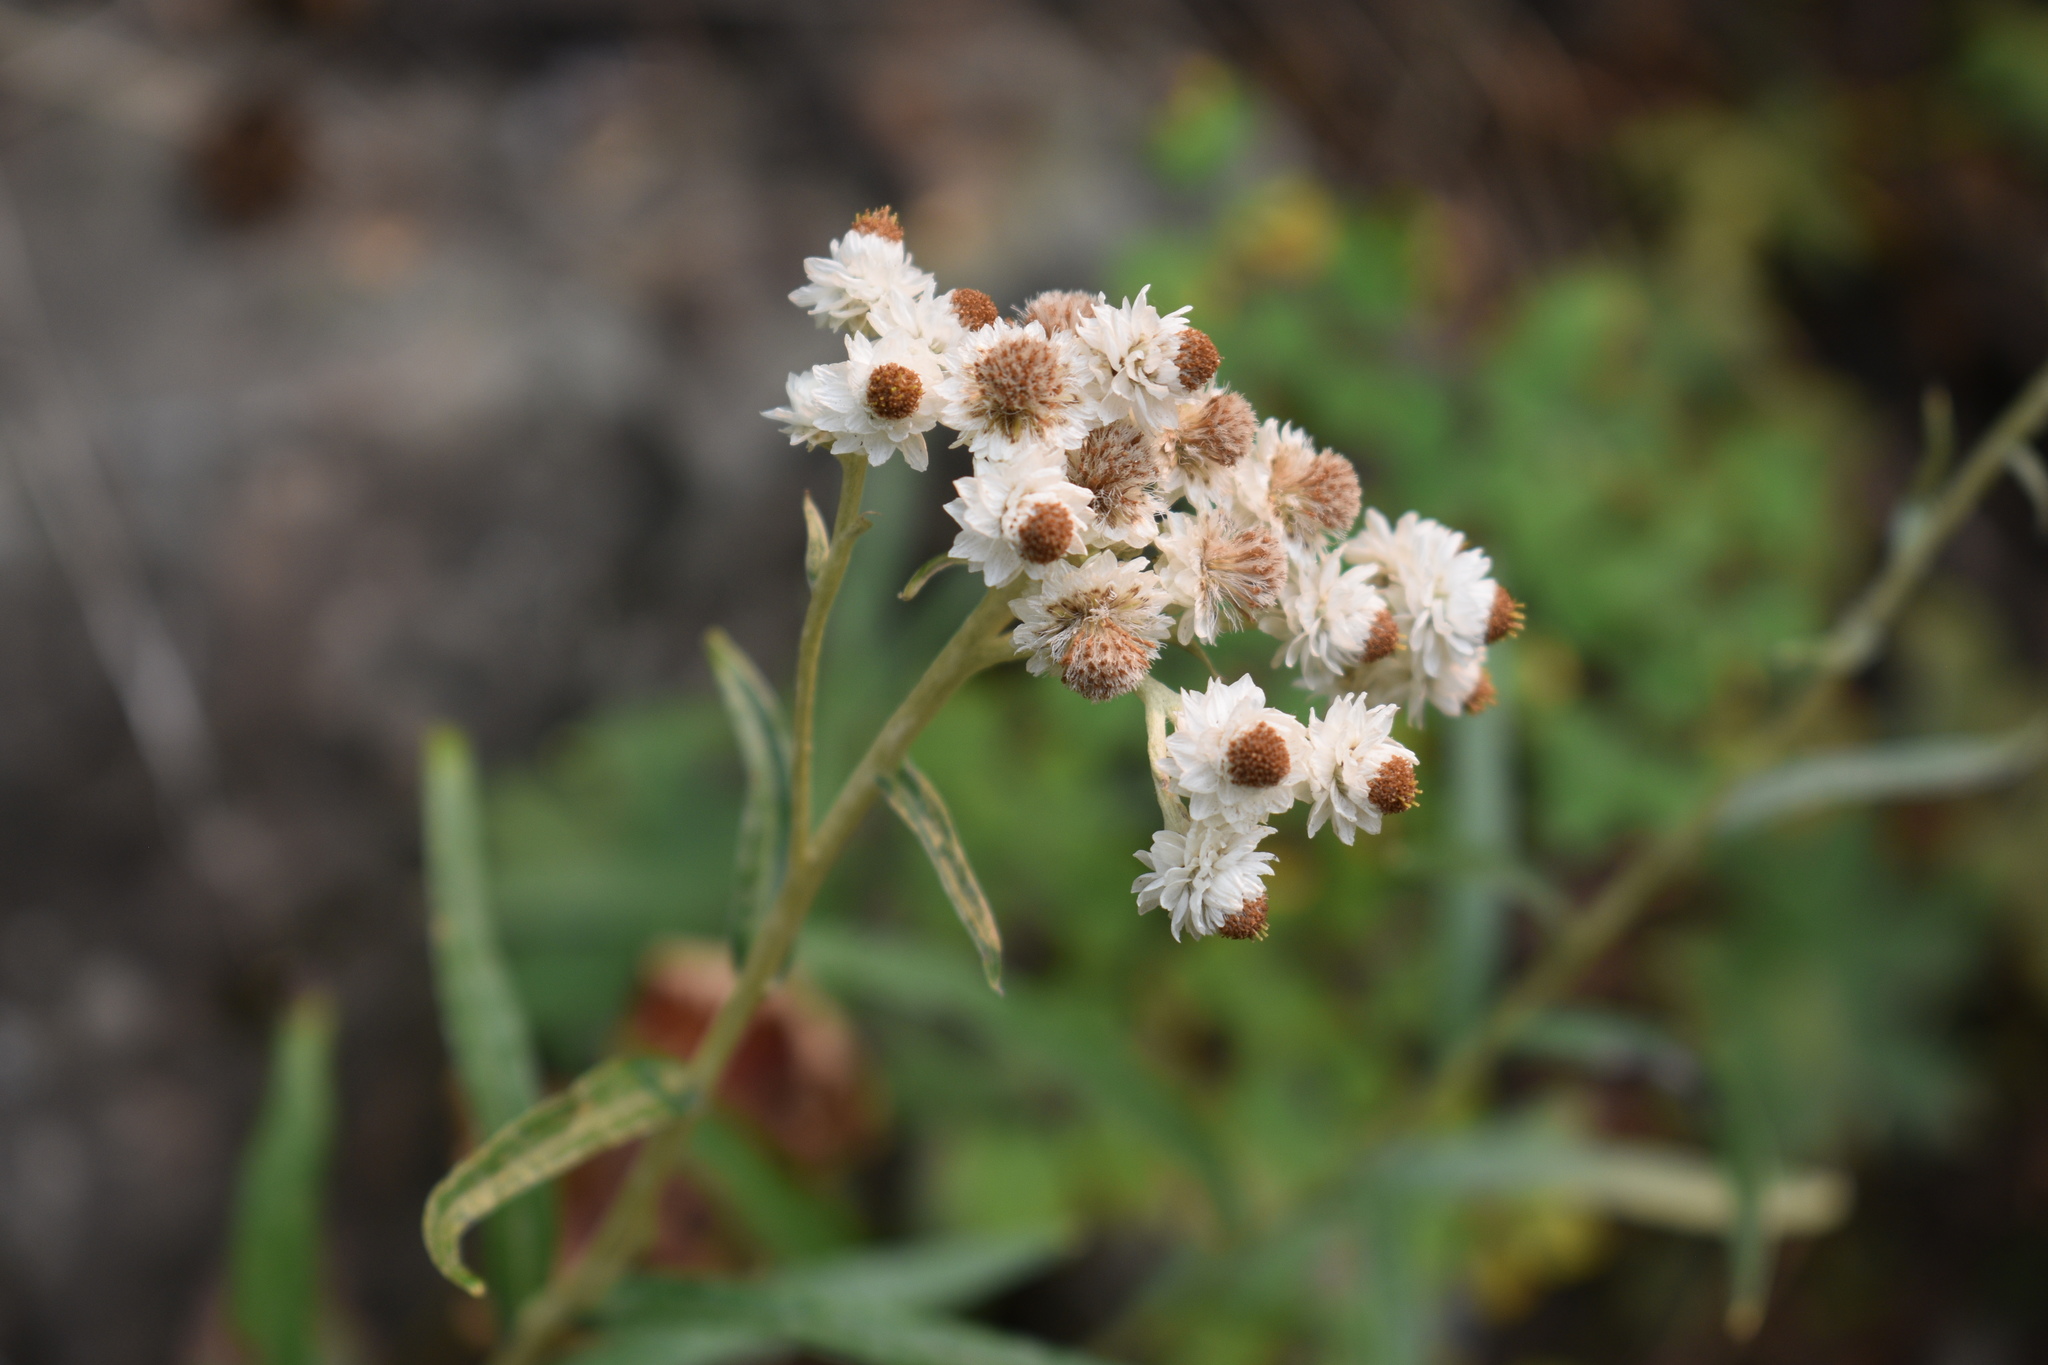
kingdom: Plantae
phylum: Tracheophyta
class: Magnoliopsida
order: Asterales
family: Asteraceae
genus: Anaphalis
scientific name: Anaphalis margaritacea
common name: Pearly everlasting
